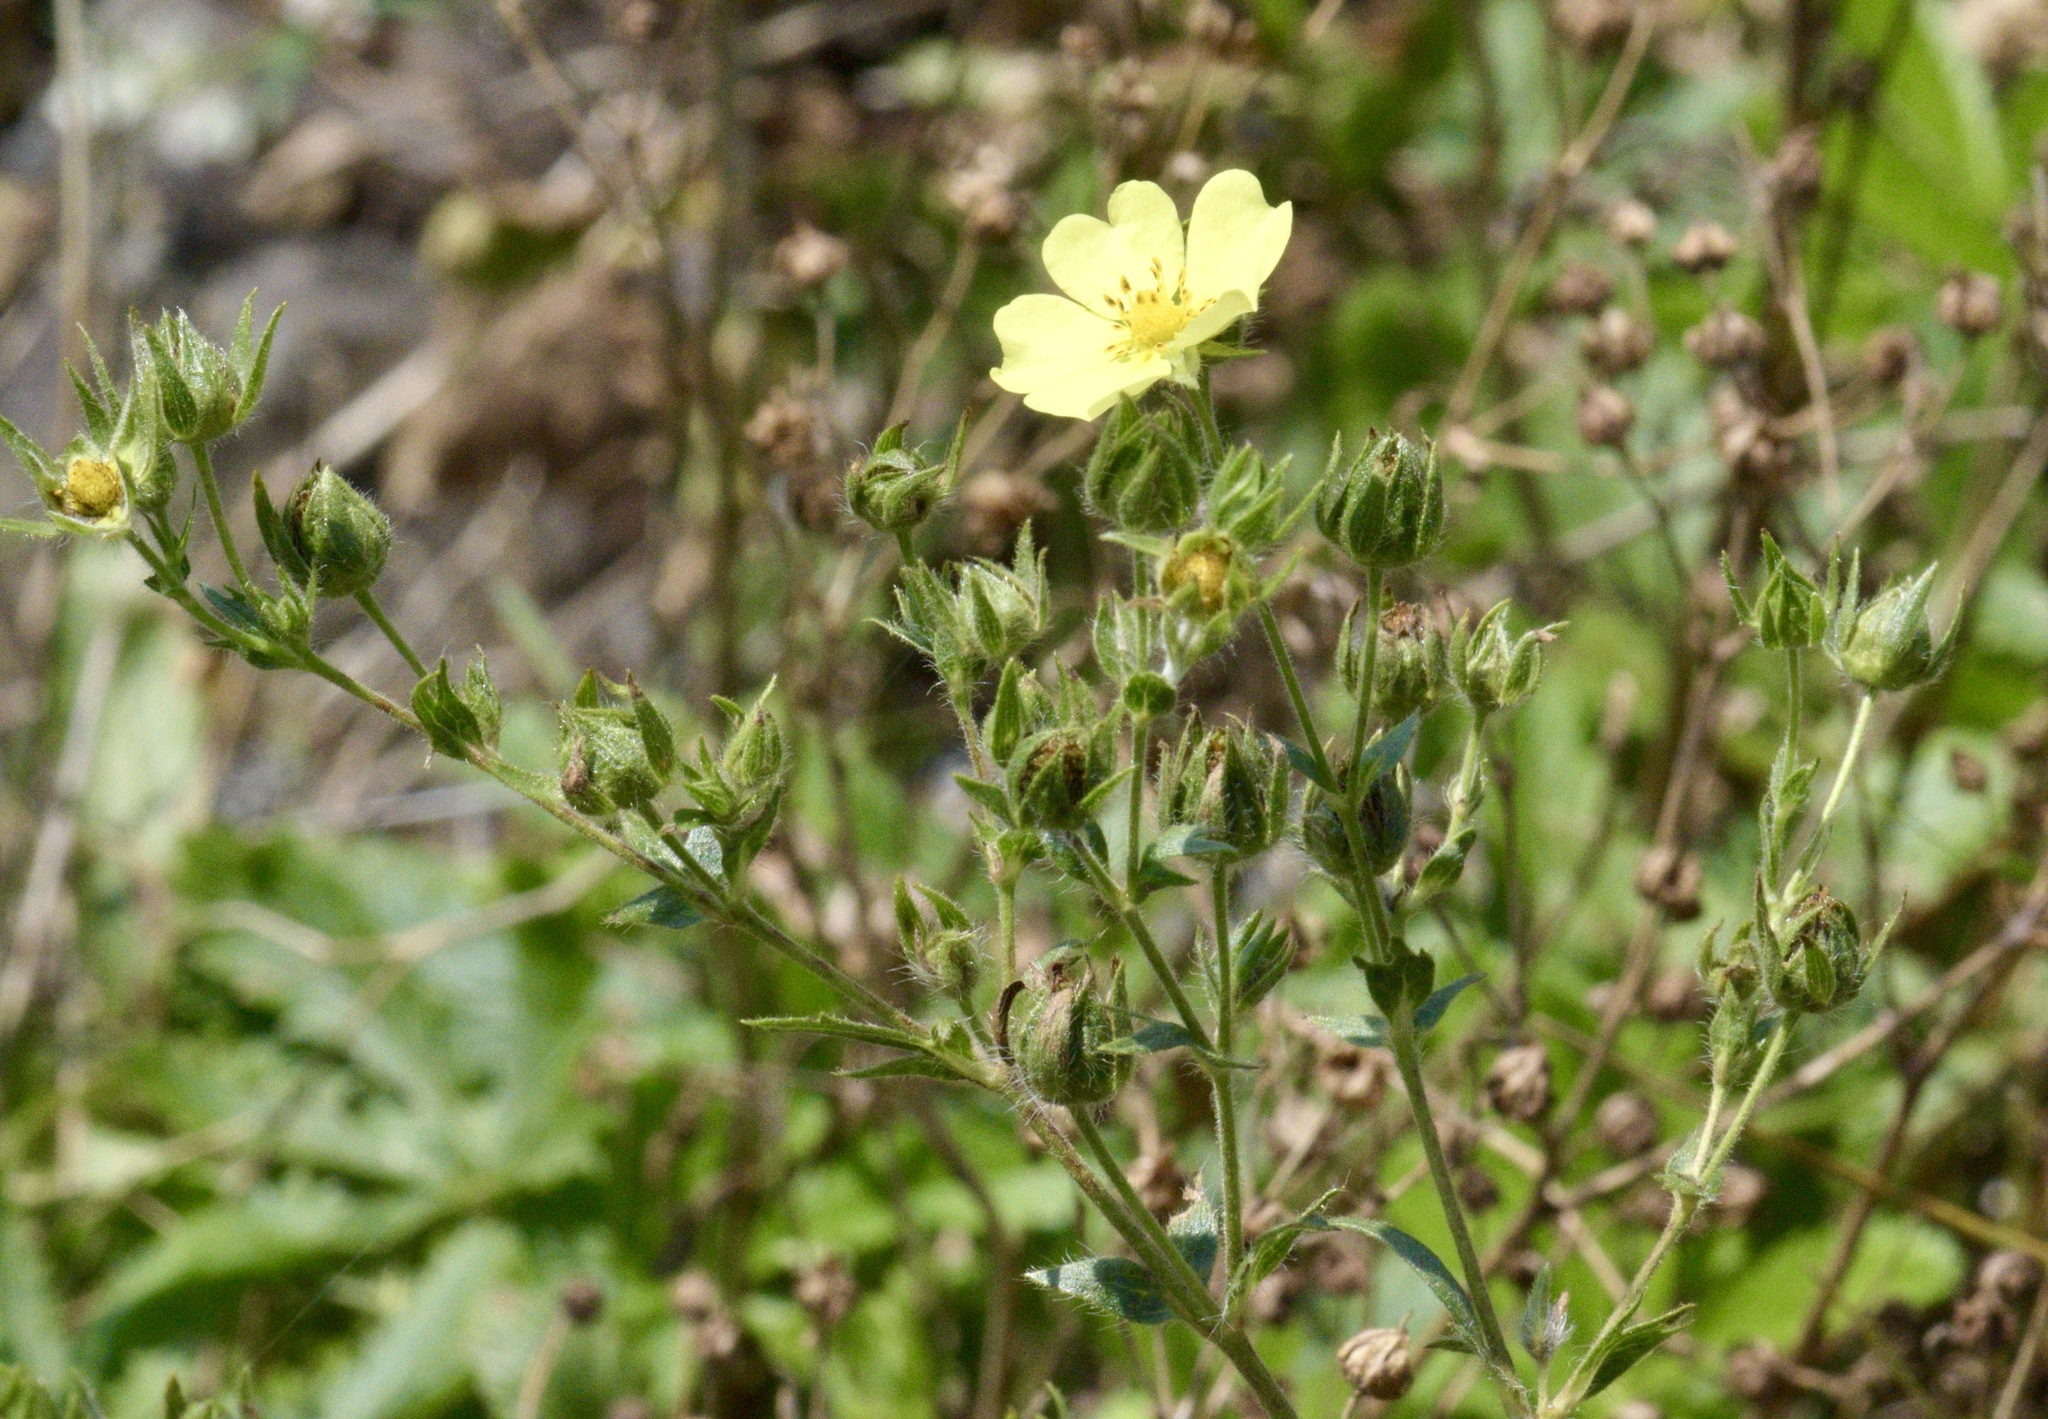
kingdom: Plantae
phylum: Tracheophyta
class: Magnoliopsida
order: Rosales
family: Rosaceae
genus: Potentilla
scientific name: Potentilla recta
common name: Sulphur cinquefoil
